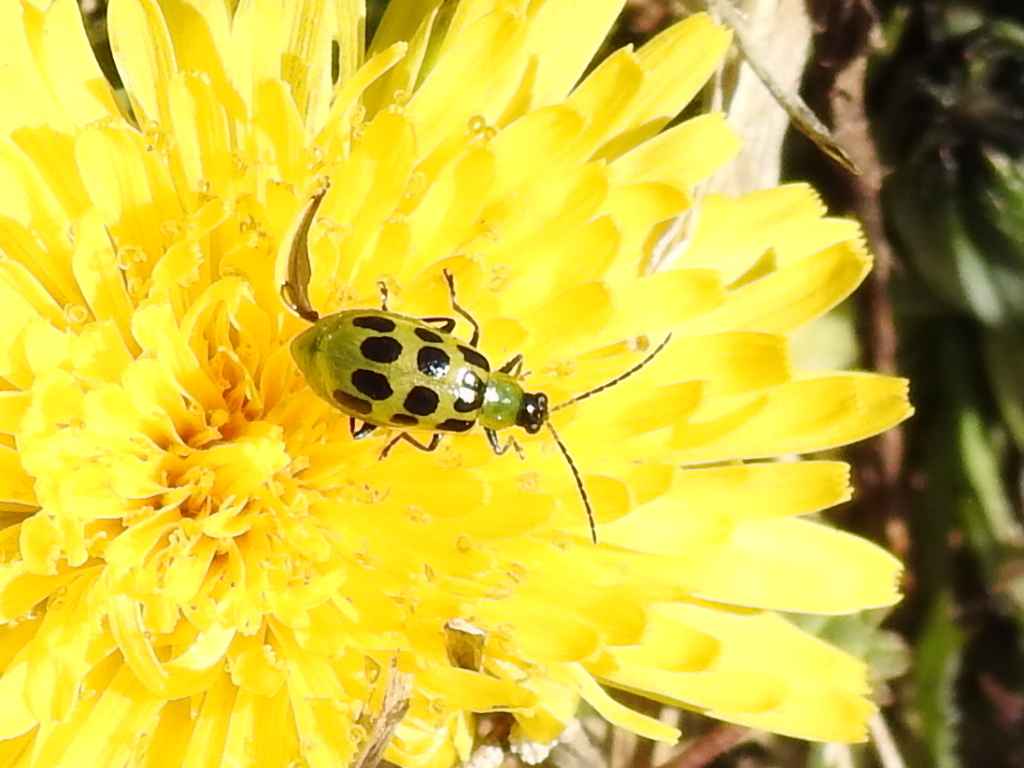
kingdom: Animalia
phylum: Arthropoda
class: Insecta
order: Coleoptera
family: Chrysomelidae
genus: Diabrotica
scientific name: Diabrotica undecimpunctata
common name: Spotted cucumber beetle
